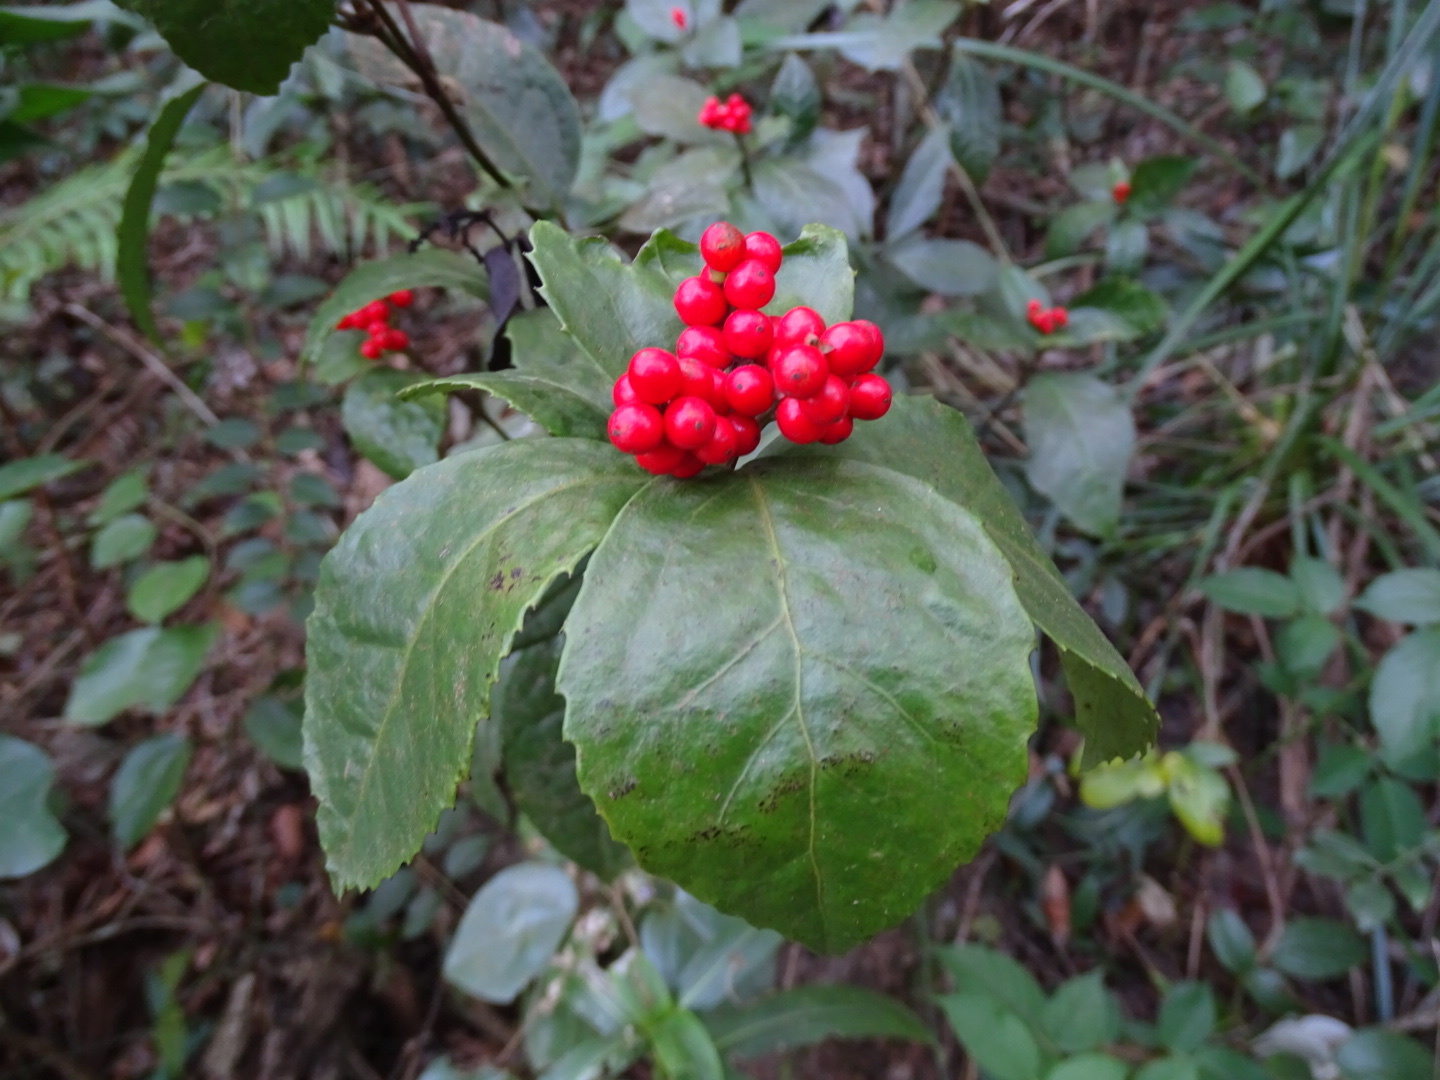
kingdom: Plantae
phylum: Tracheophyta
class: Magnoliopsida
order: Chloranthales
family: Chloranthaceae
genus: Sarcandra
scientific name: Sarcandra glabra
